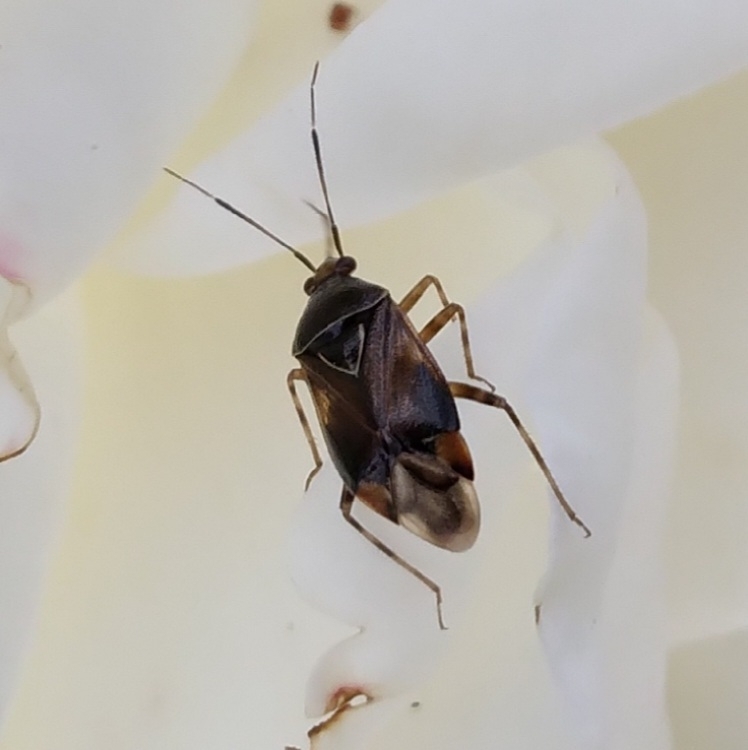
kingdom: Animalia
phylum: Arthropoda
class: Insecta
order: Hemiptera
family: Miridae
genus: Deraeocoris
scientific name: Deraeocoris flavilinea
